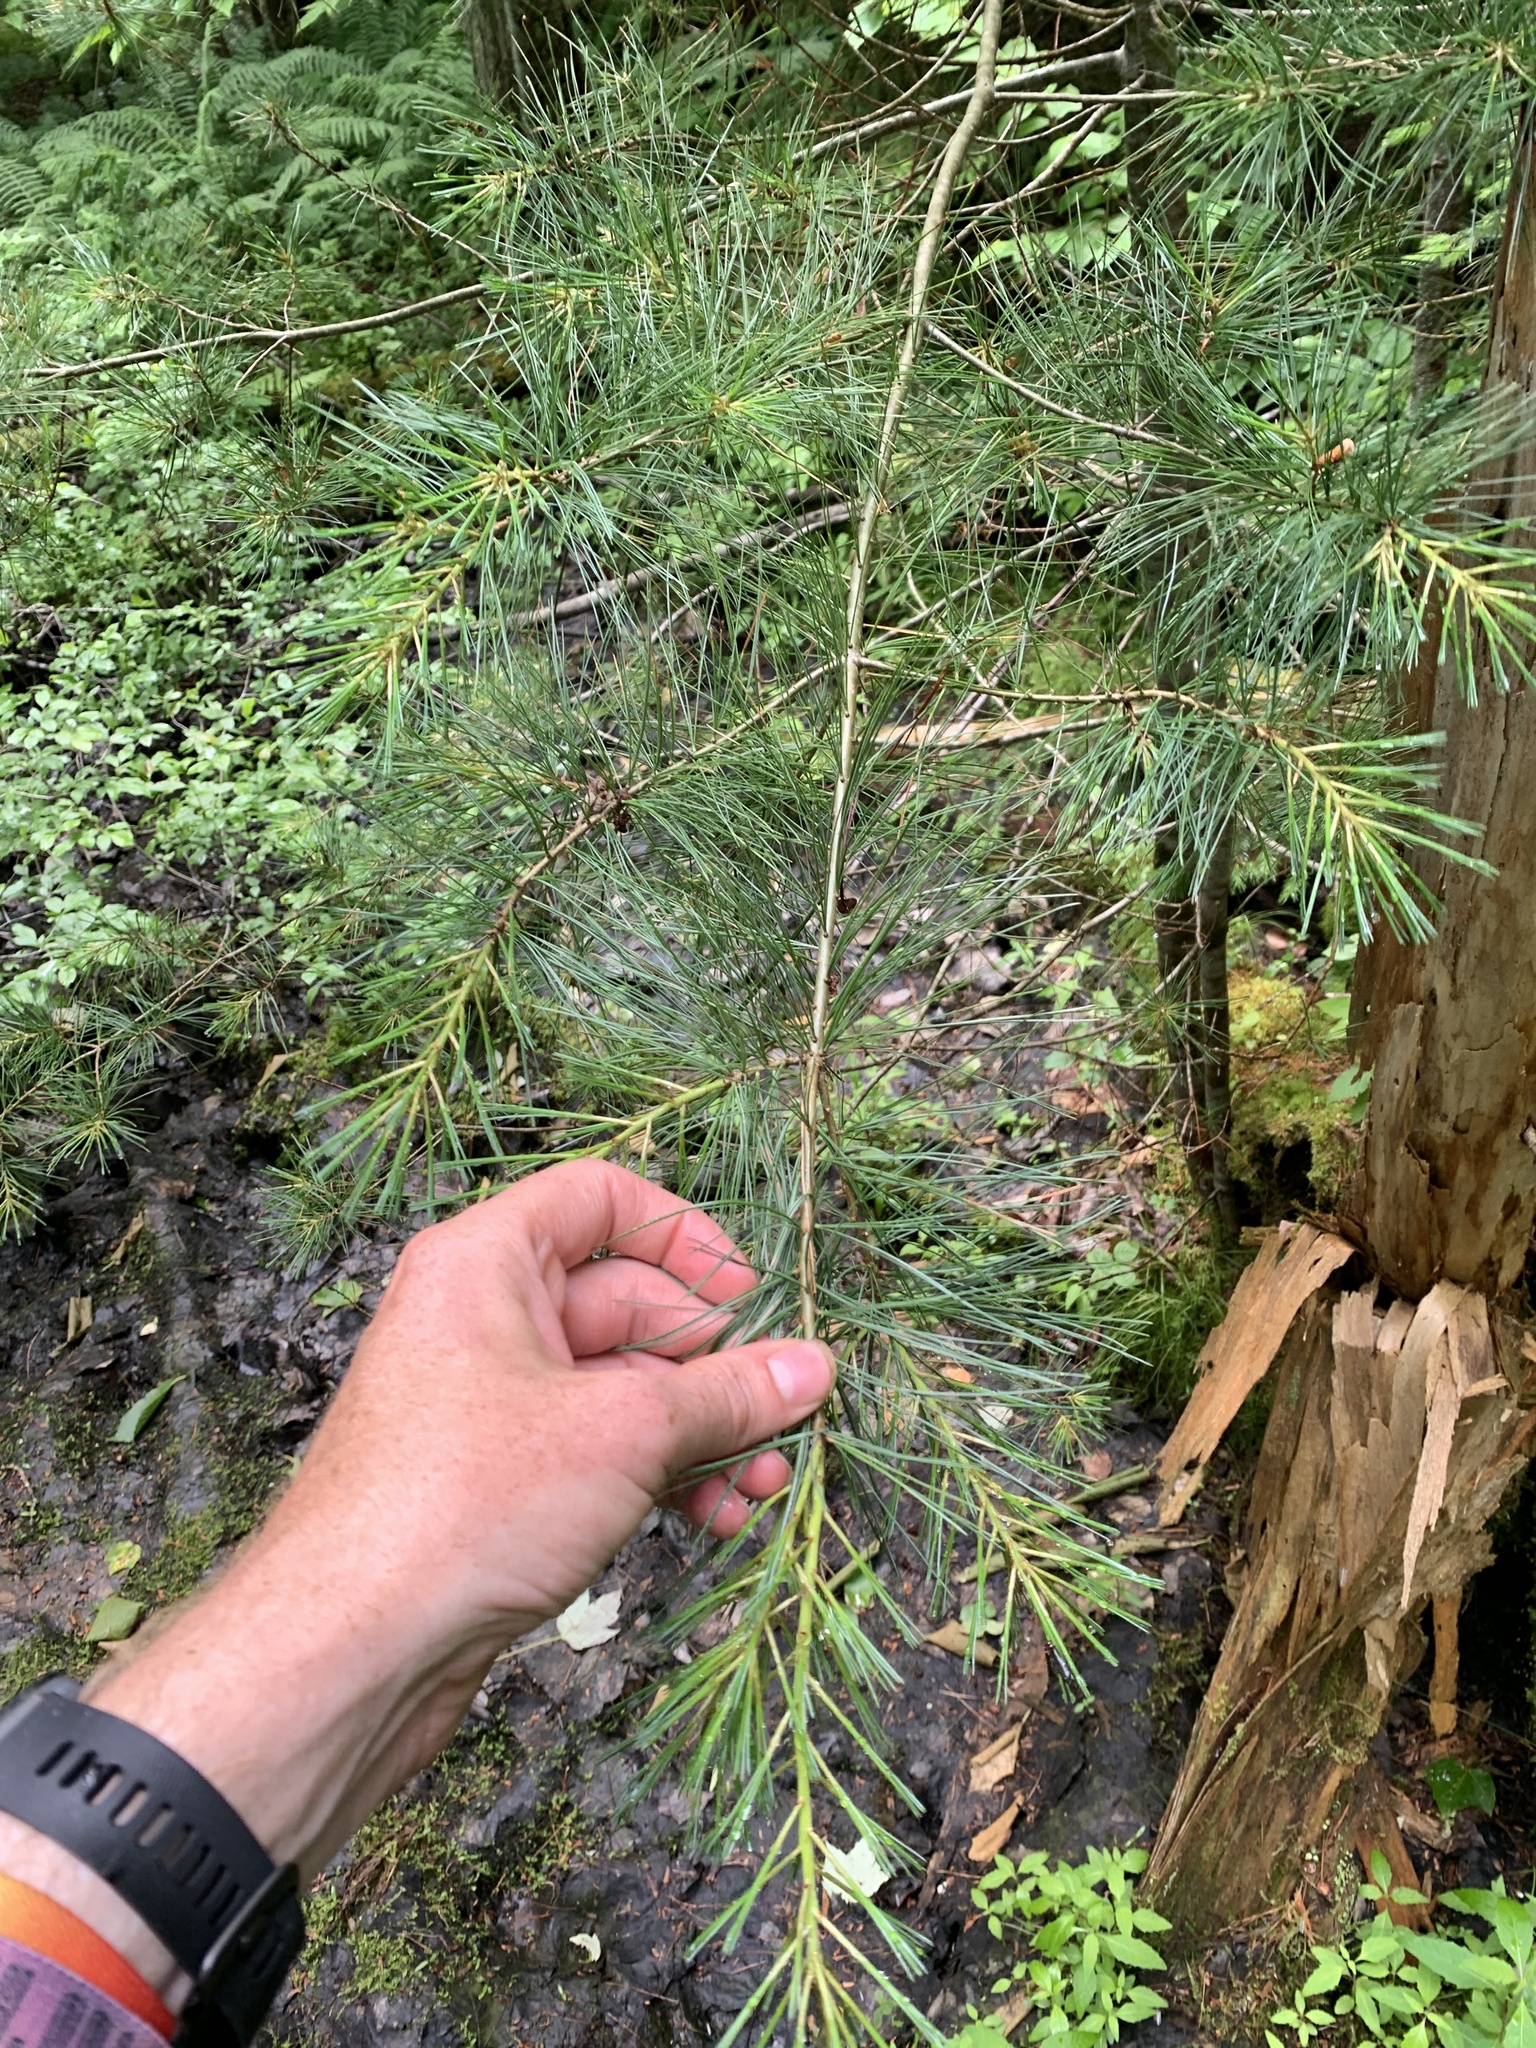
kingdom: Plantae
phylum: Tracheophyta
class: Pinopsida
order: Pinales
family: Pinaceae
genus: Pinus
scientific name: Pinus strobus
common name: Weymouth pine
